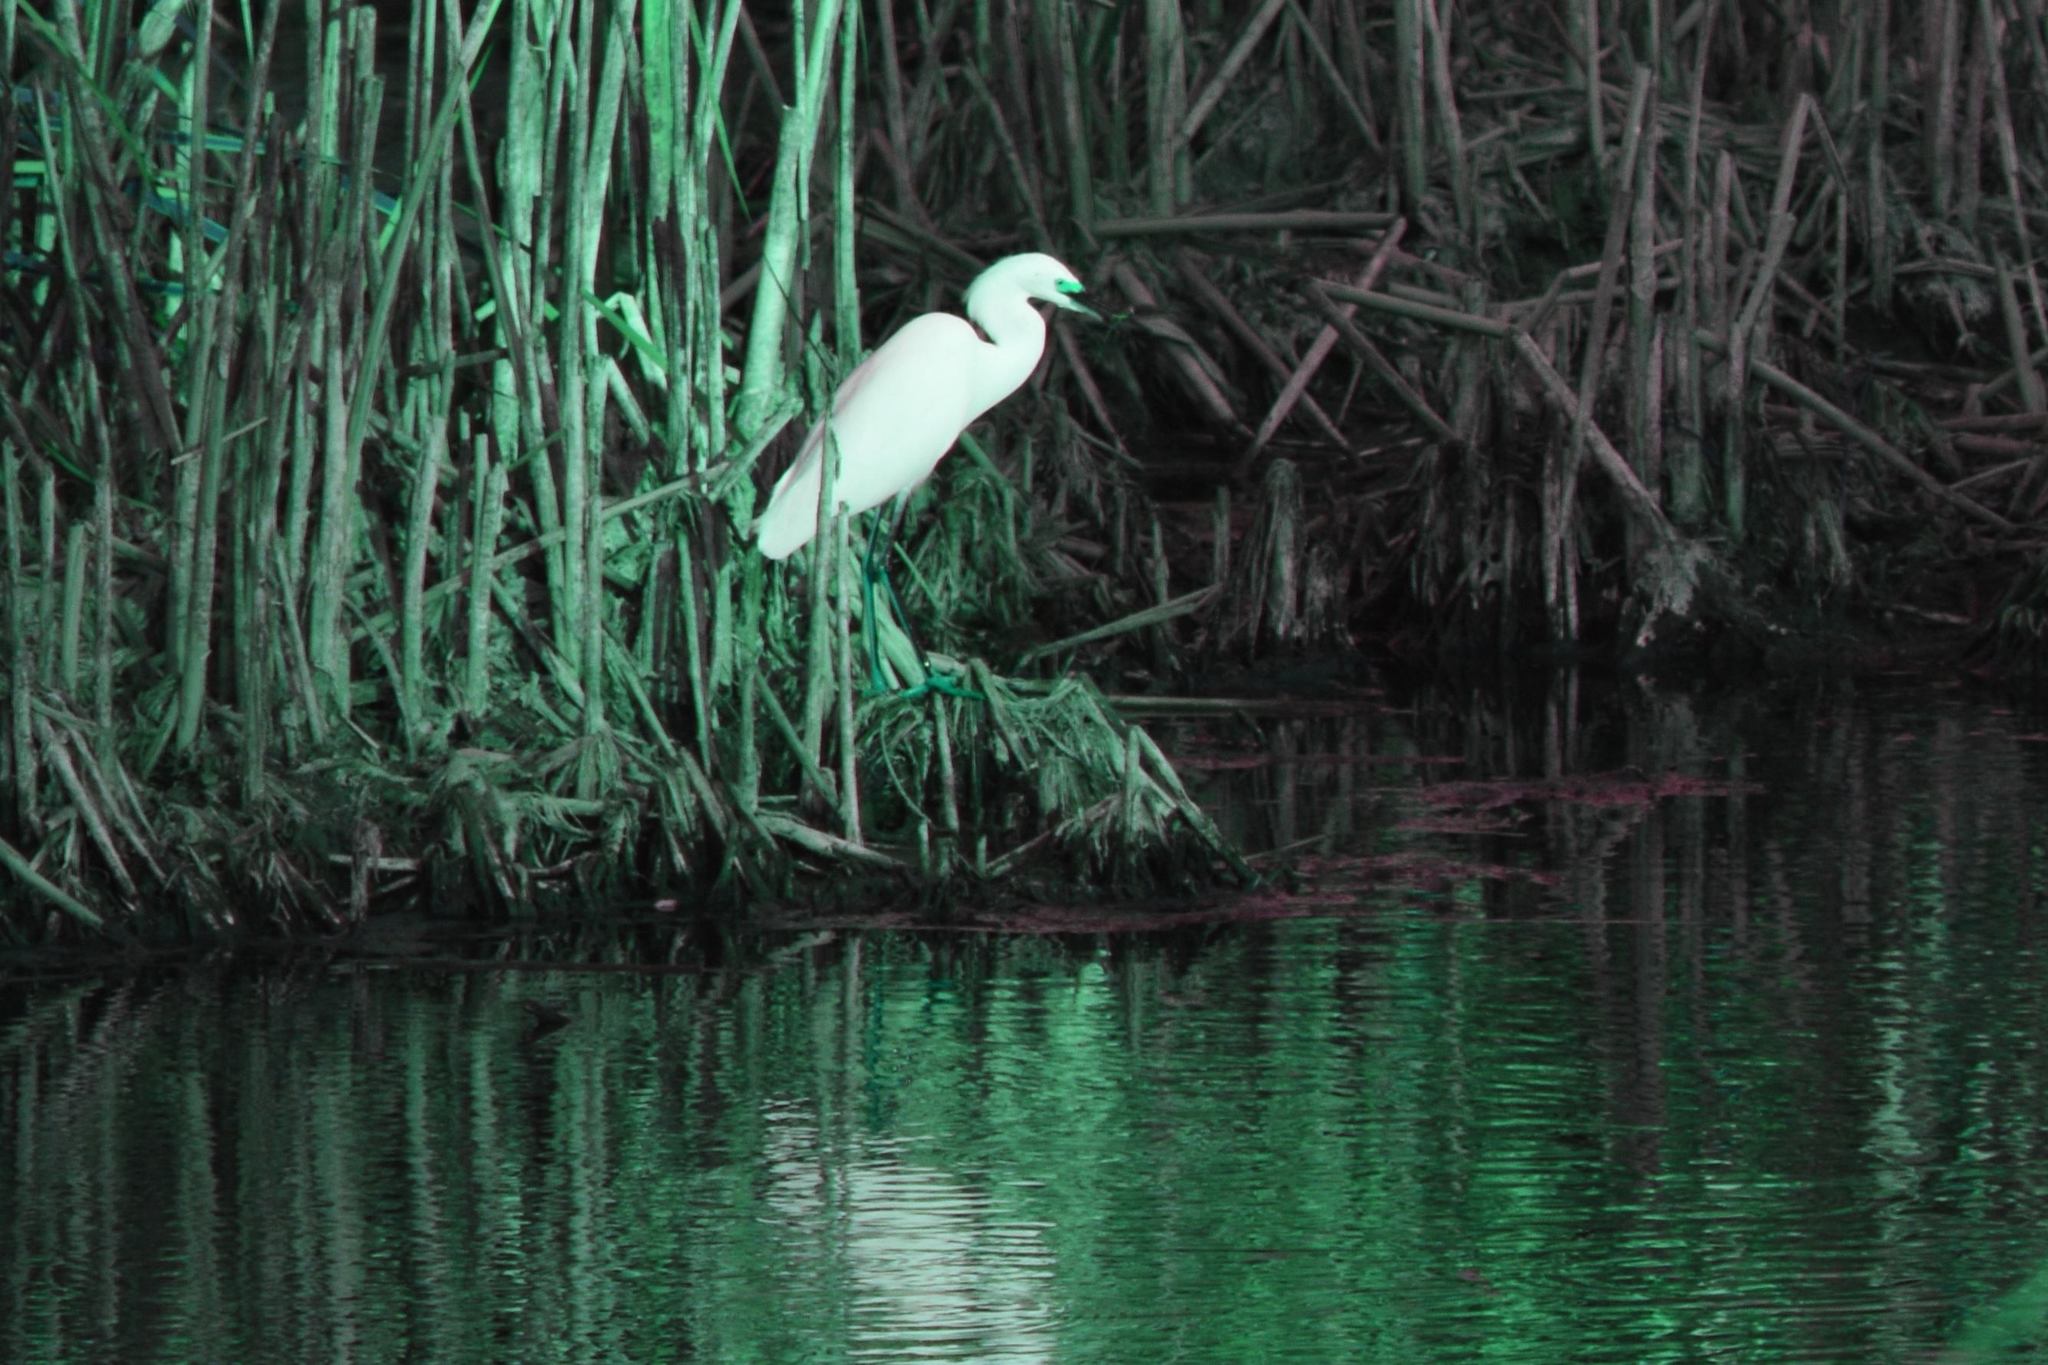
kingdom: Animalia
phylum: Chordata
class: Aves
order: Pelecaniformes
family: Ardeidae
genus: Egretta
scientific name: Egretta thula
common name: Snowy egret
